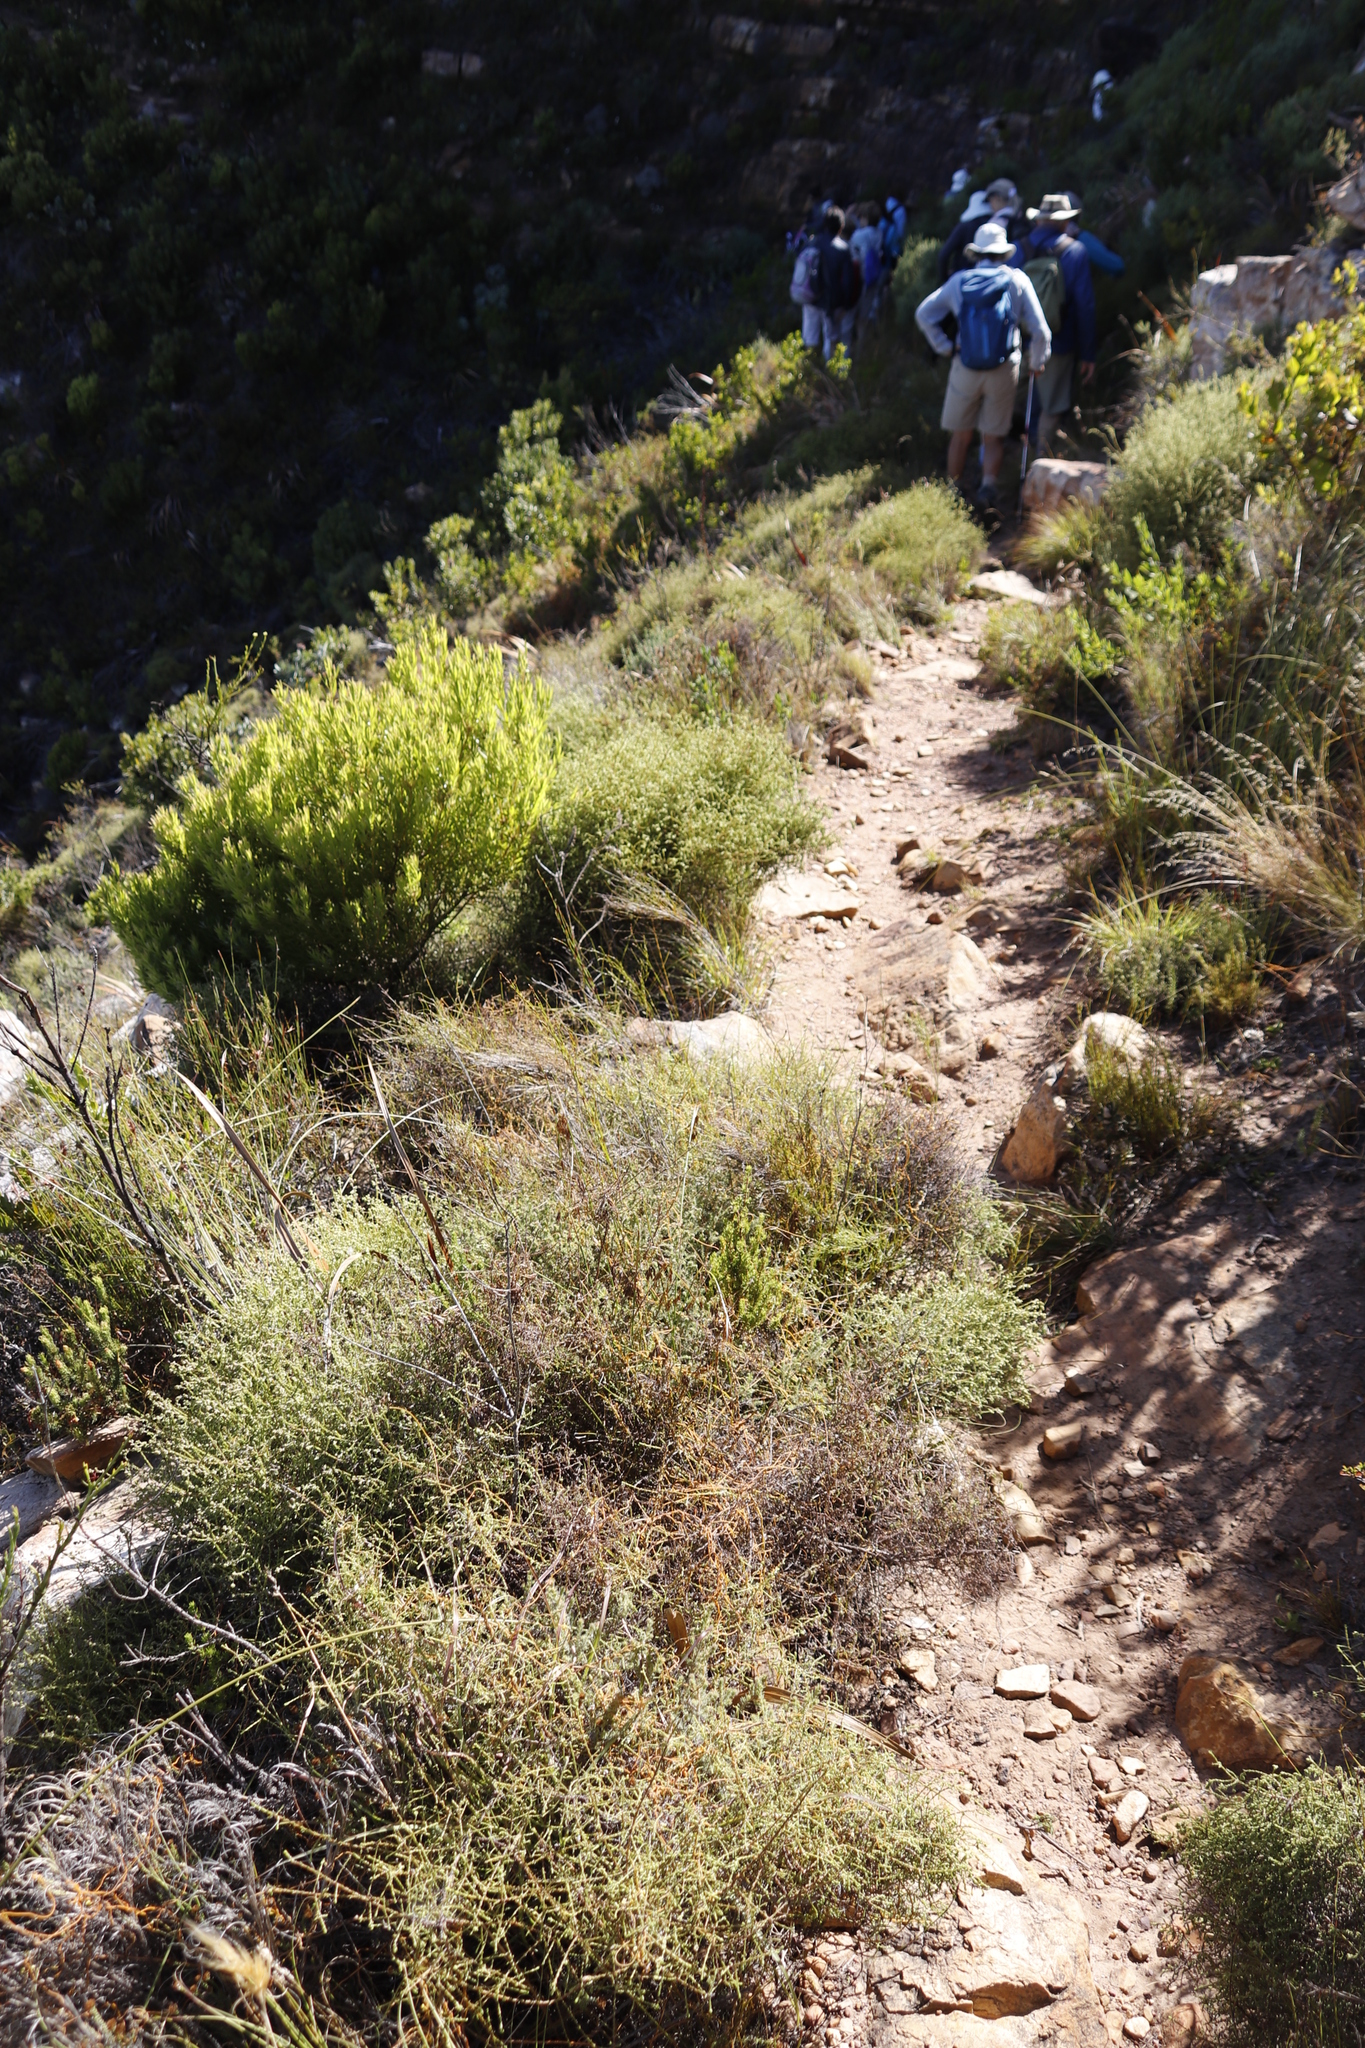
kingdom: Plantae
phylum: Tracheophyta
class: Magnoliopsida
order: Proteales
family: Proteaceae
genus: Leucadendron
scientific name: Leucadendron xanthoconus
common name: Sickle-leaf conebush
